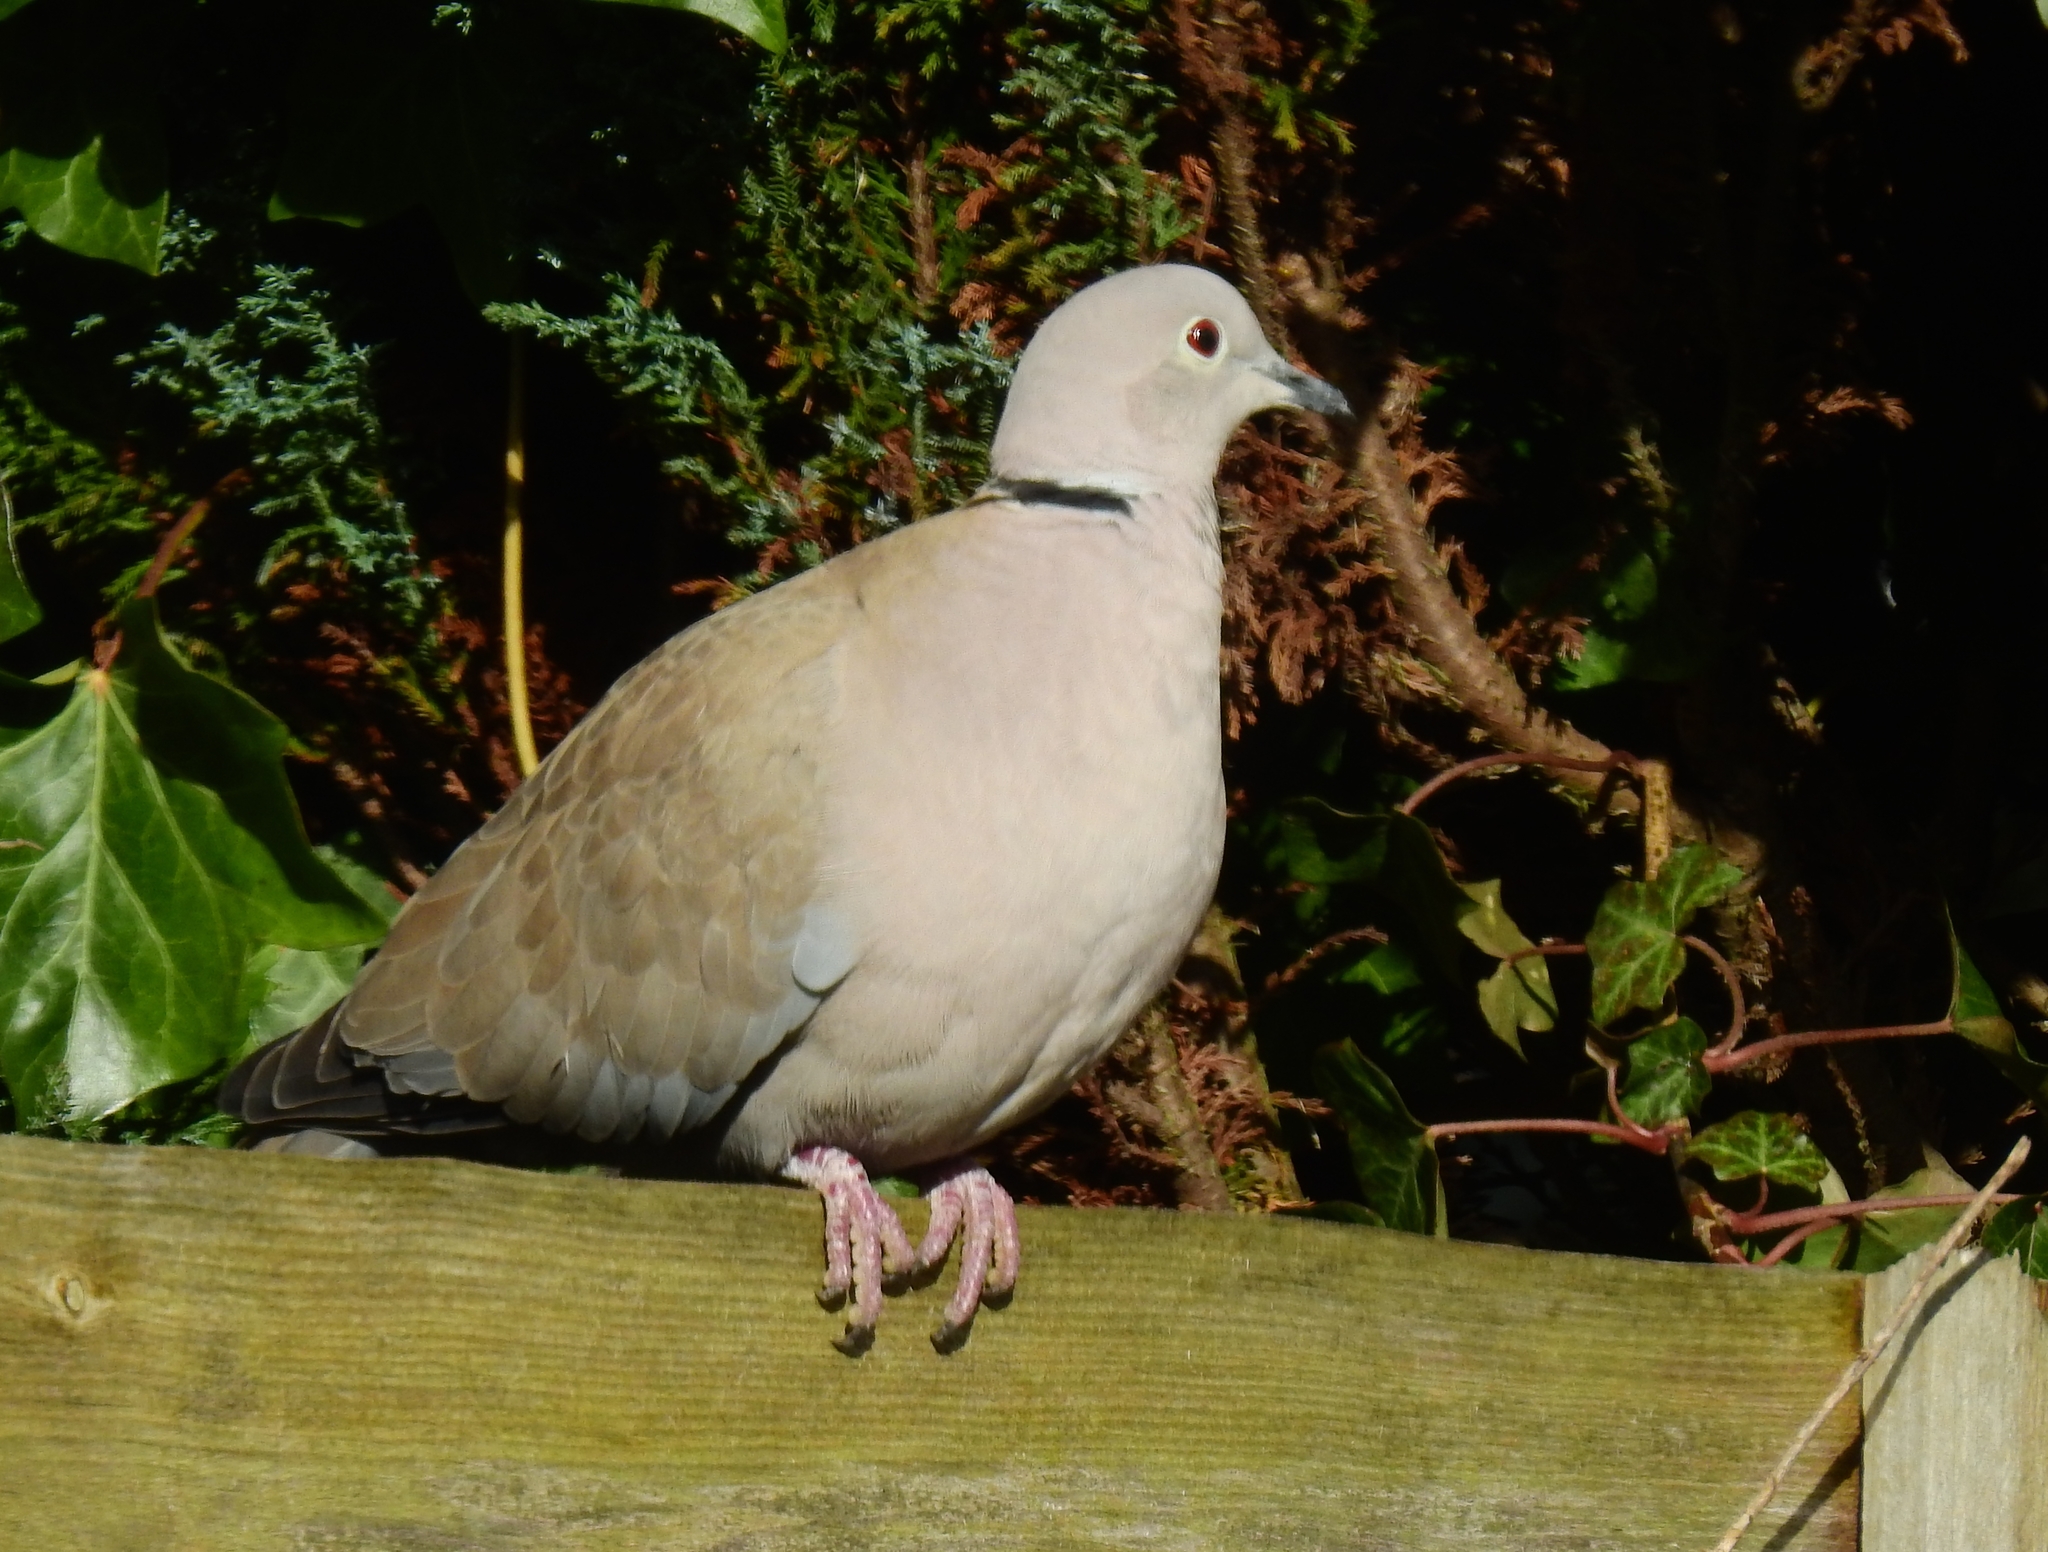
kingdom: Animalia
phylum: Chordata
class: Aves
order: Columbiformes
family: Columbidae
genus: Streptopelia
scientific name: Streptopelia decaocto
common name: Eurasian collared dove
